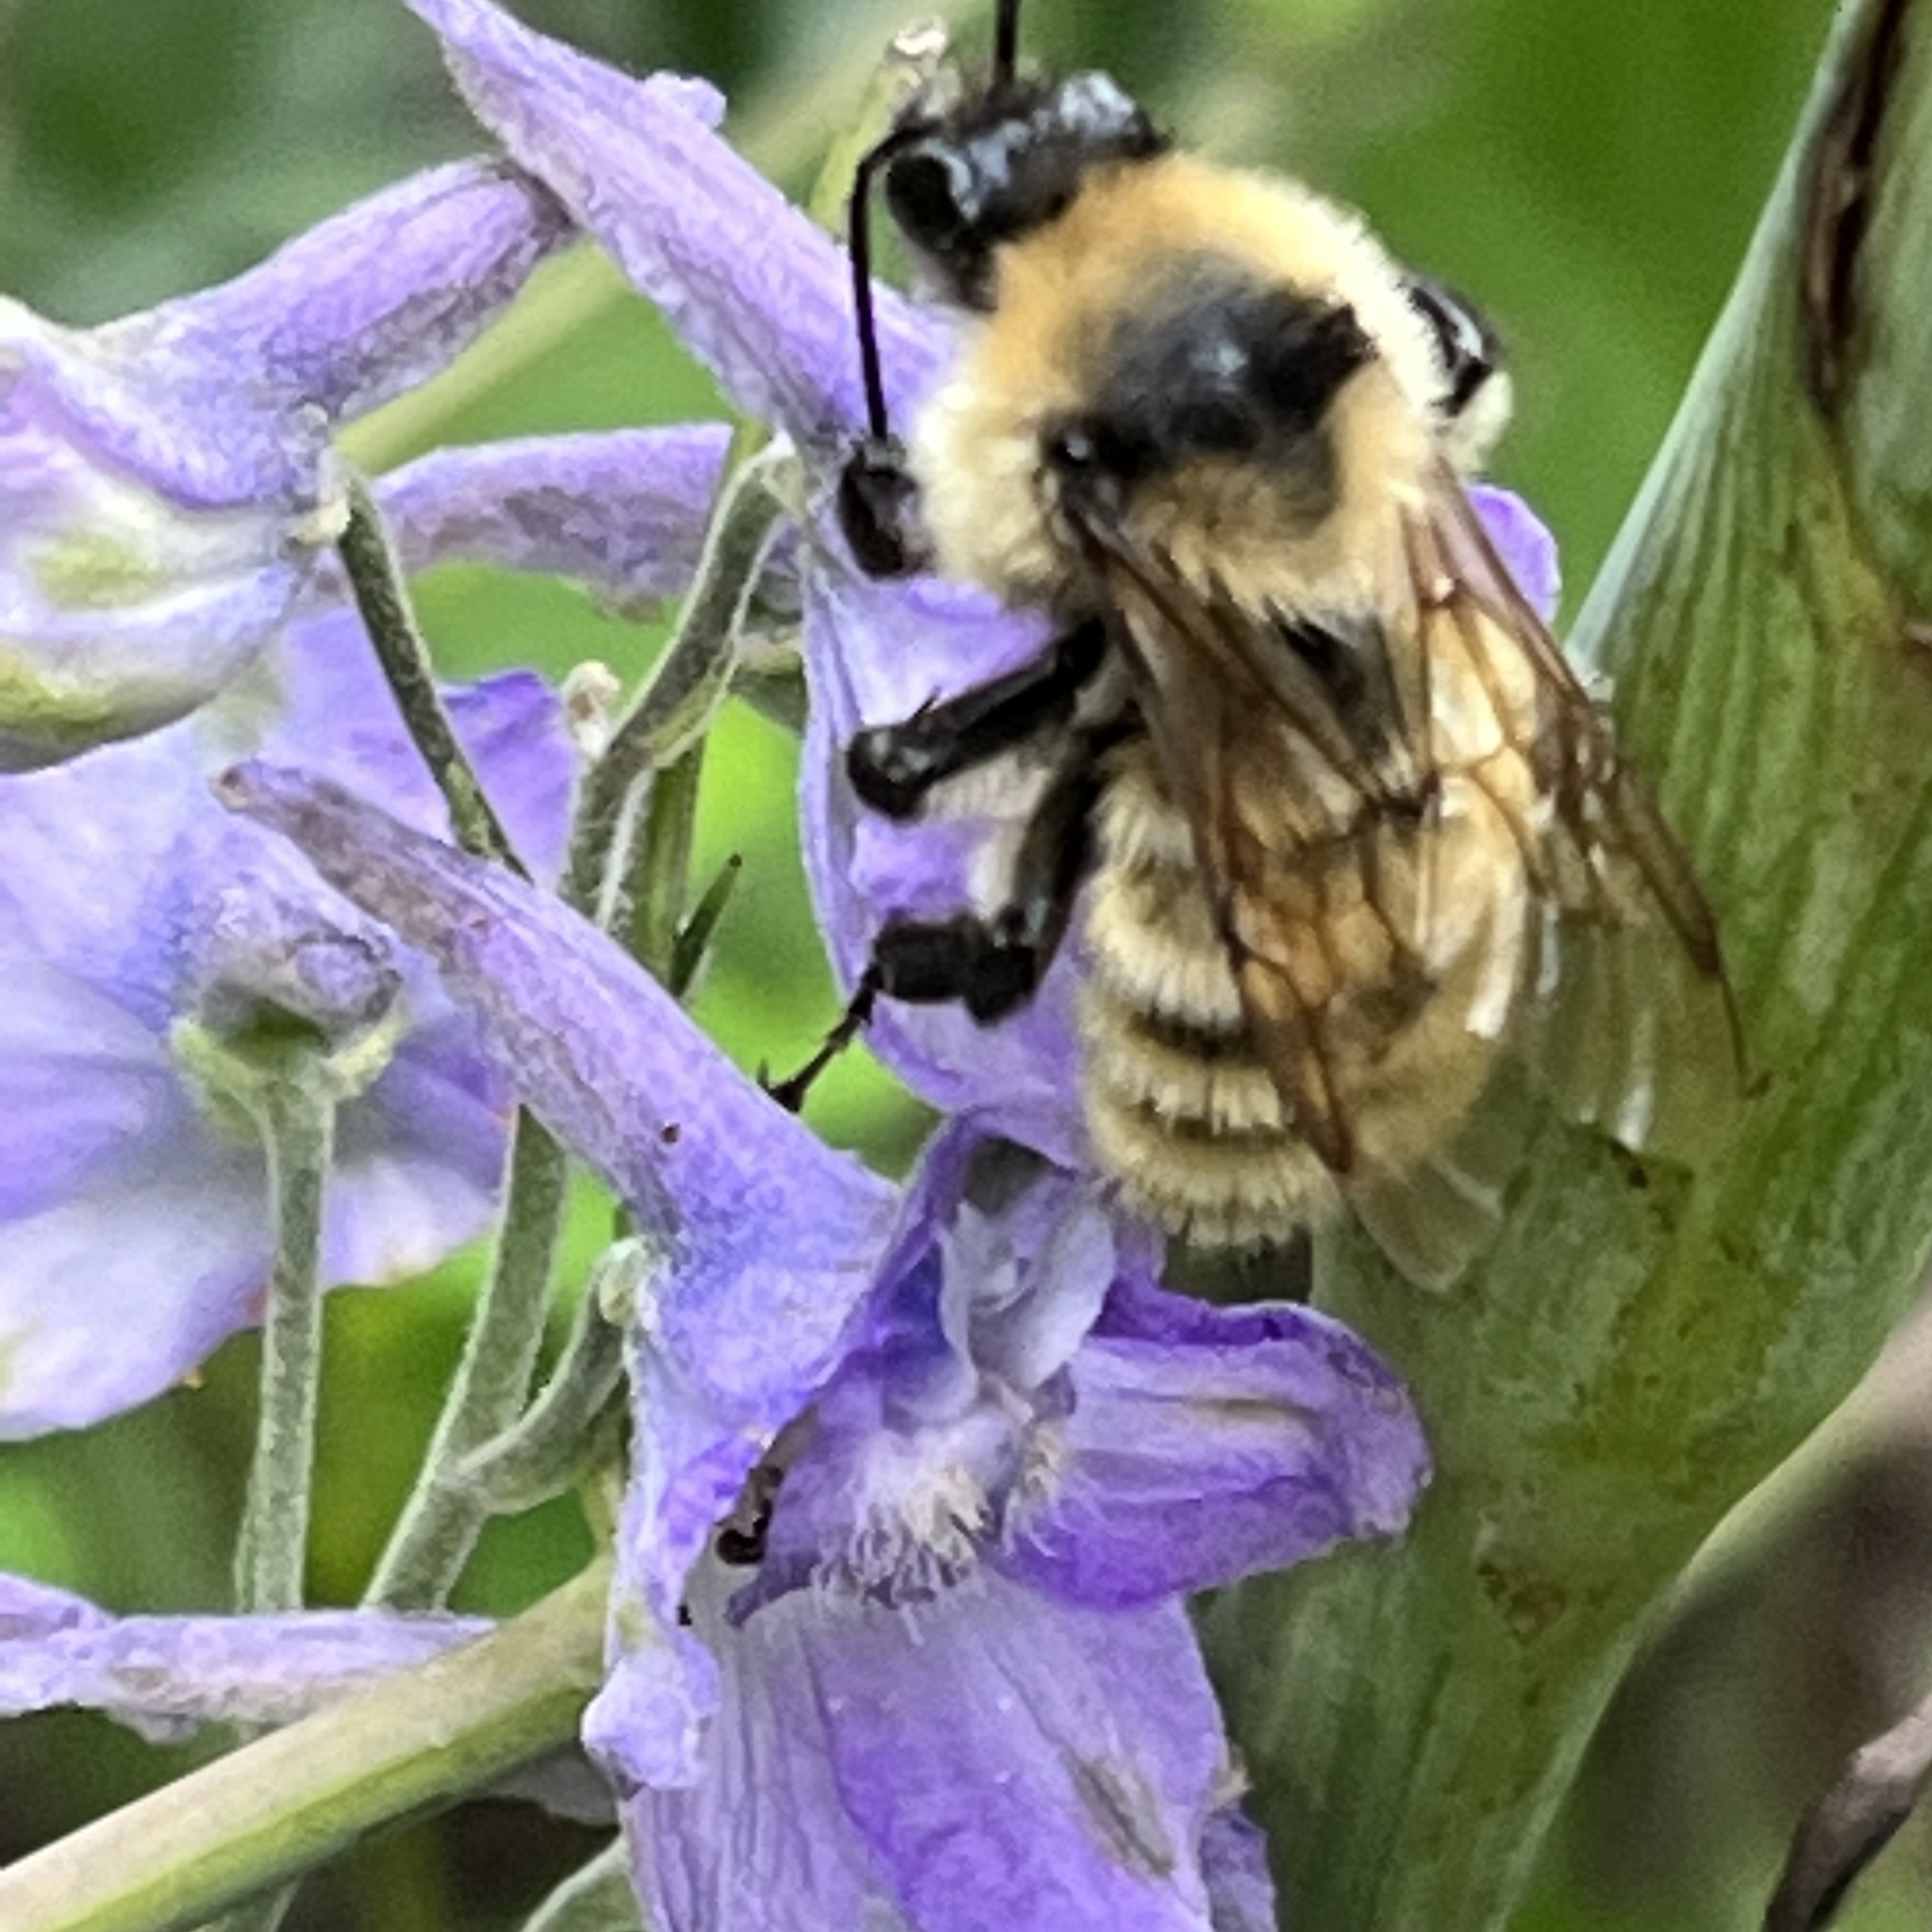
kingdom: Animalia
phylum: Arthropoda
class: Insecta
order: Hymenoptera
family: Apidae
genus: Bombus
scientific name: Bombus fervidus
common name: Yellow bumble bee
